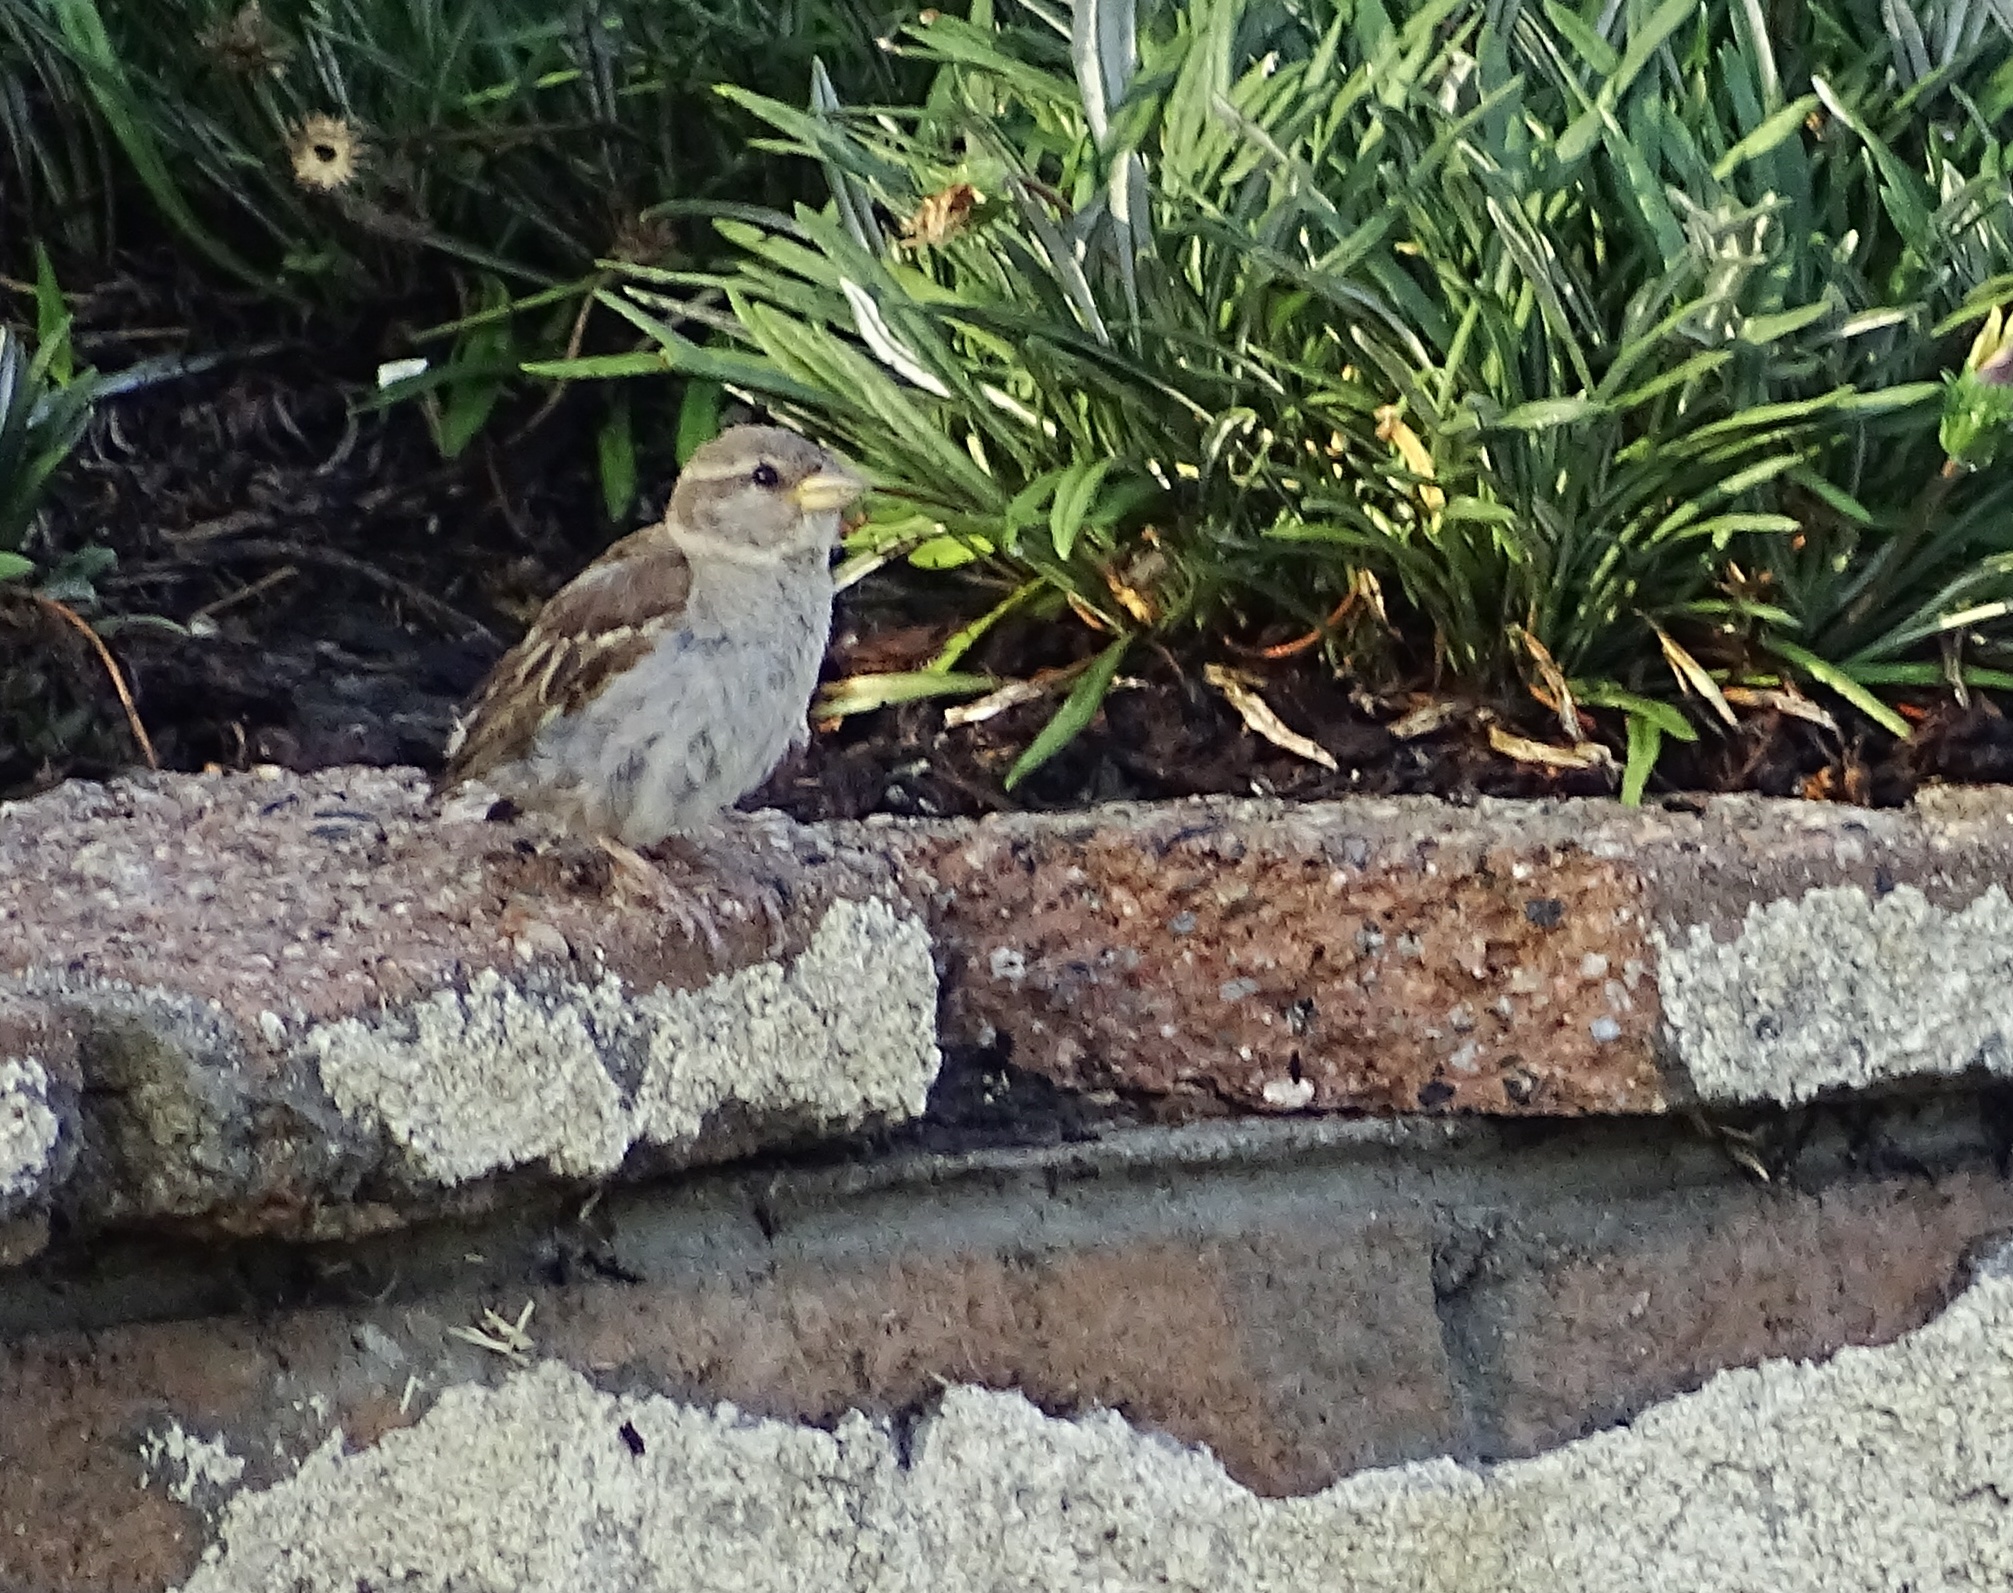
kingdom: Animalia
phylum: Chordata
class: Aves
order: Passeriformes
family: Passeridae
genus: Passer
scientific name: Passer domesticus
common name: House sparrow
